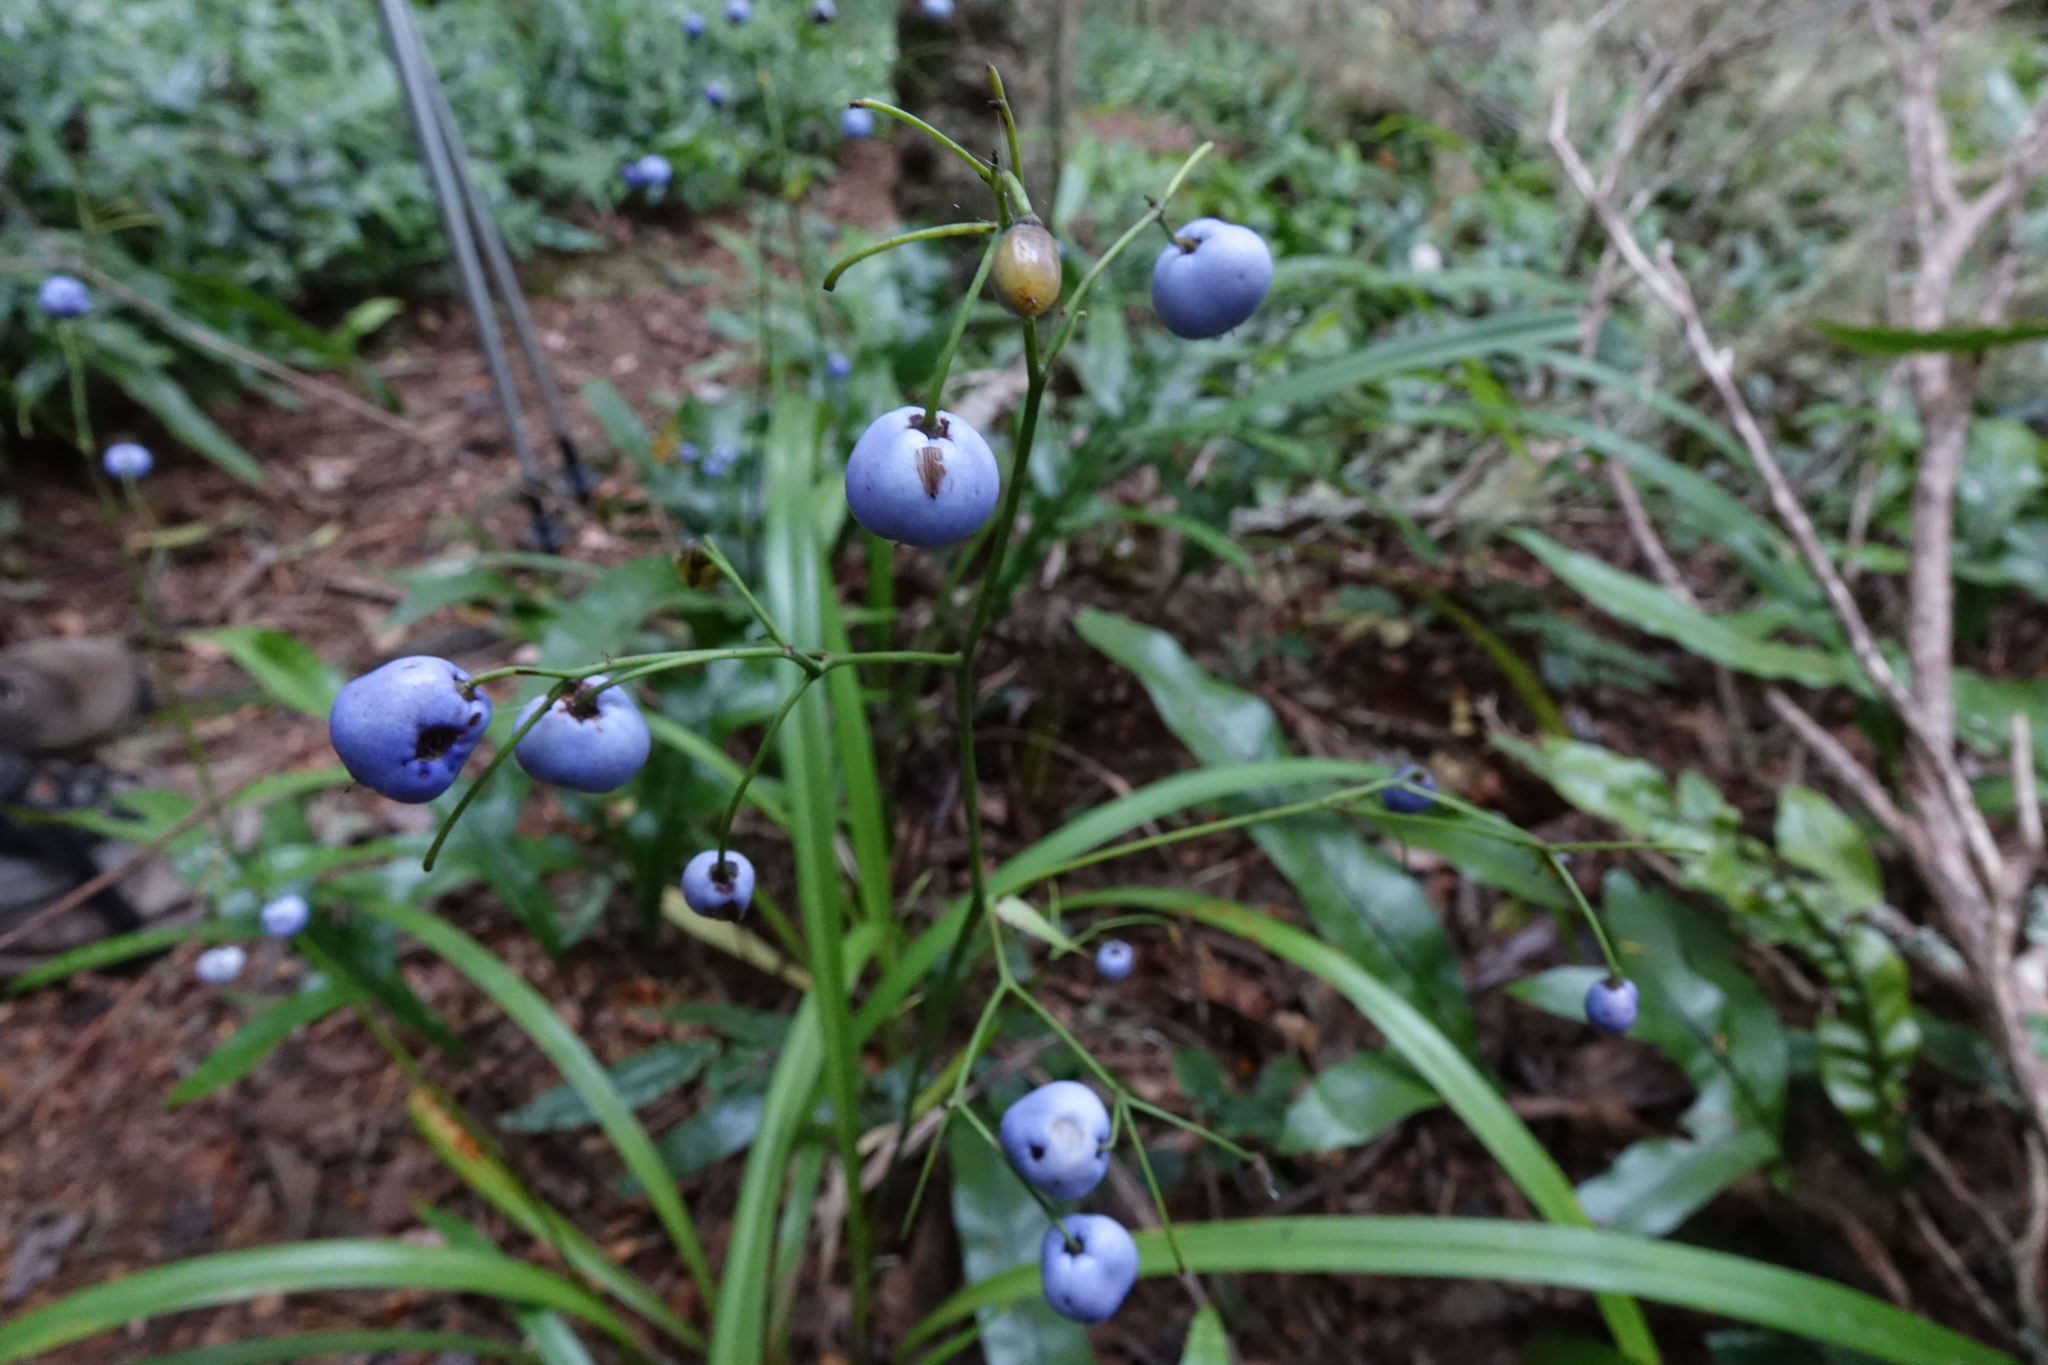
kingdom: Plantae
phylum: Tracheophyta
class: Liliopsida
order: Asparagales
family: Asphodelaceae
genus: Dianella
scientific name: Dianella nigra
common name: New zealand-blueberry
